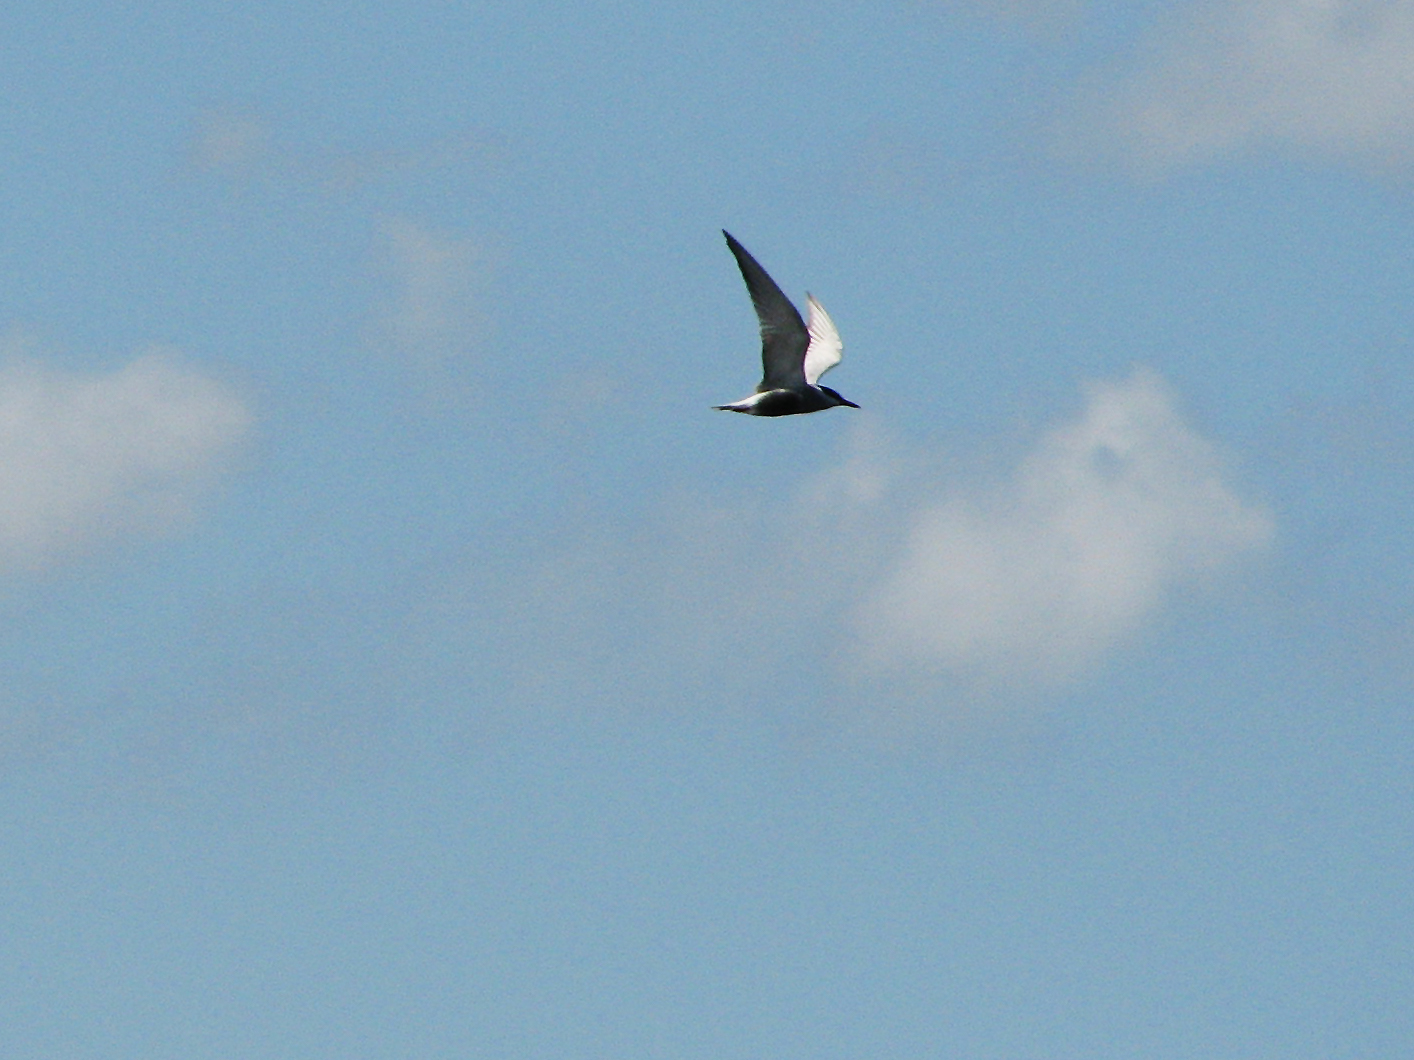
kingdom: Animalia
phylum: Chordata
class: Aves
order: Charadriiformes
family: Laridae
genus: Chlidonias
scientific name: Chlidonias hybrida
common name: Whiskered tern
